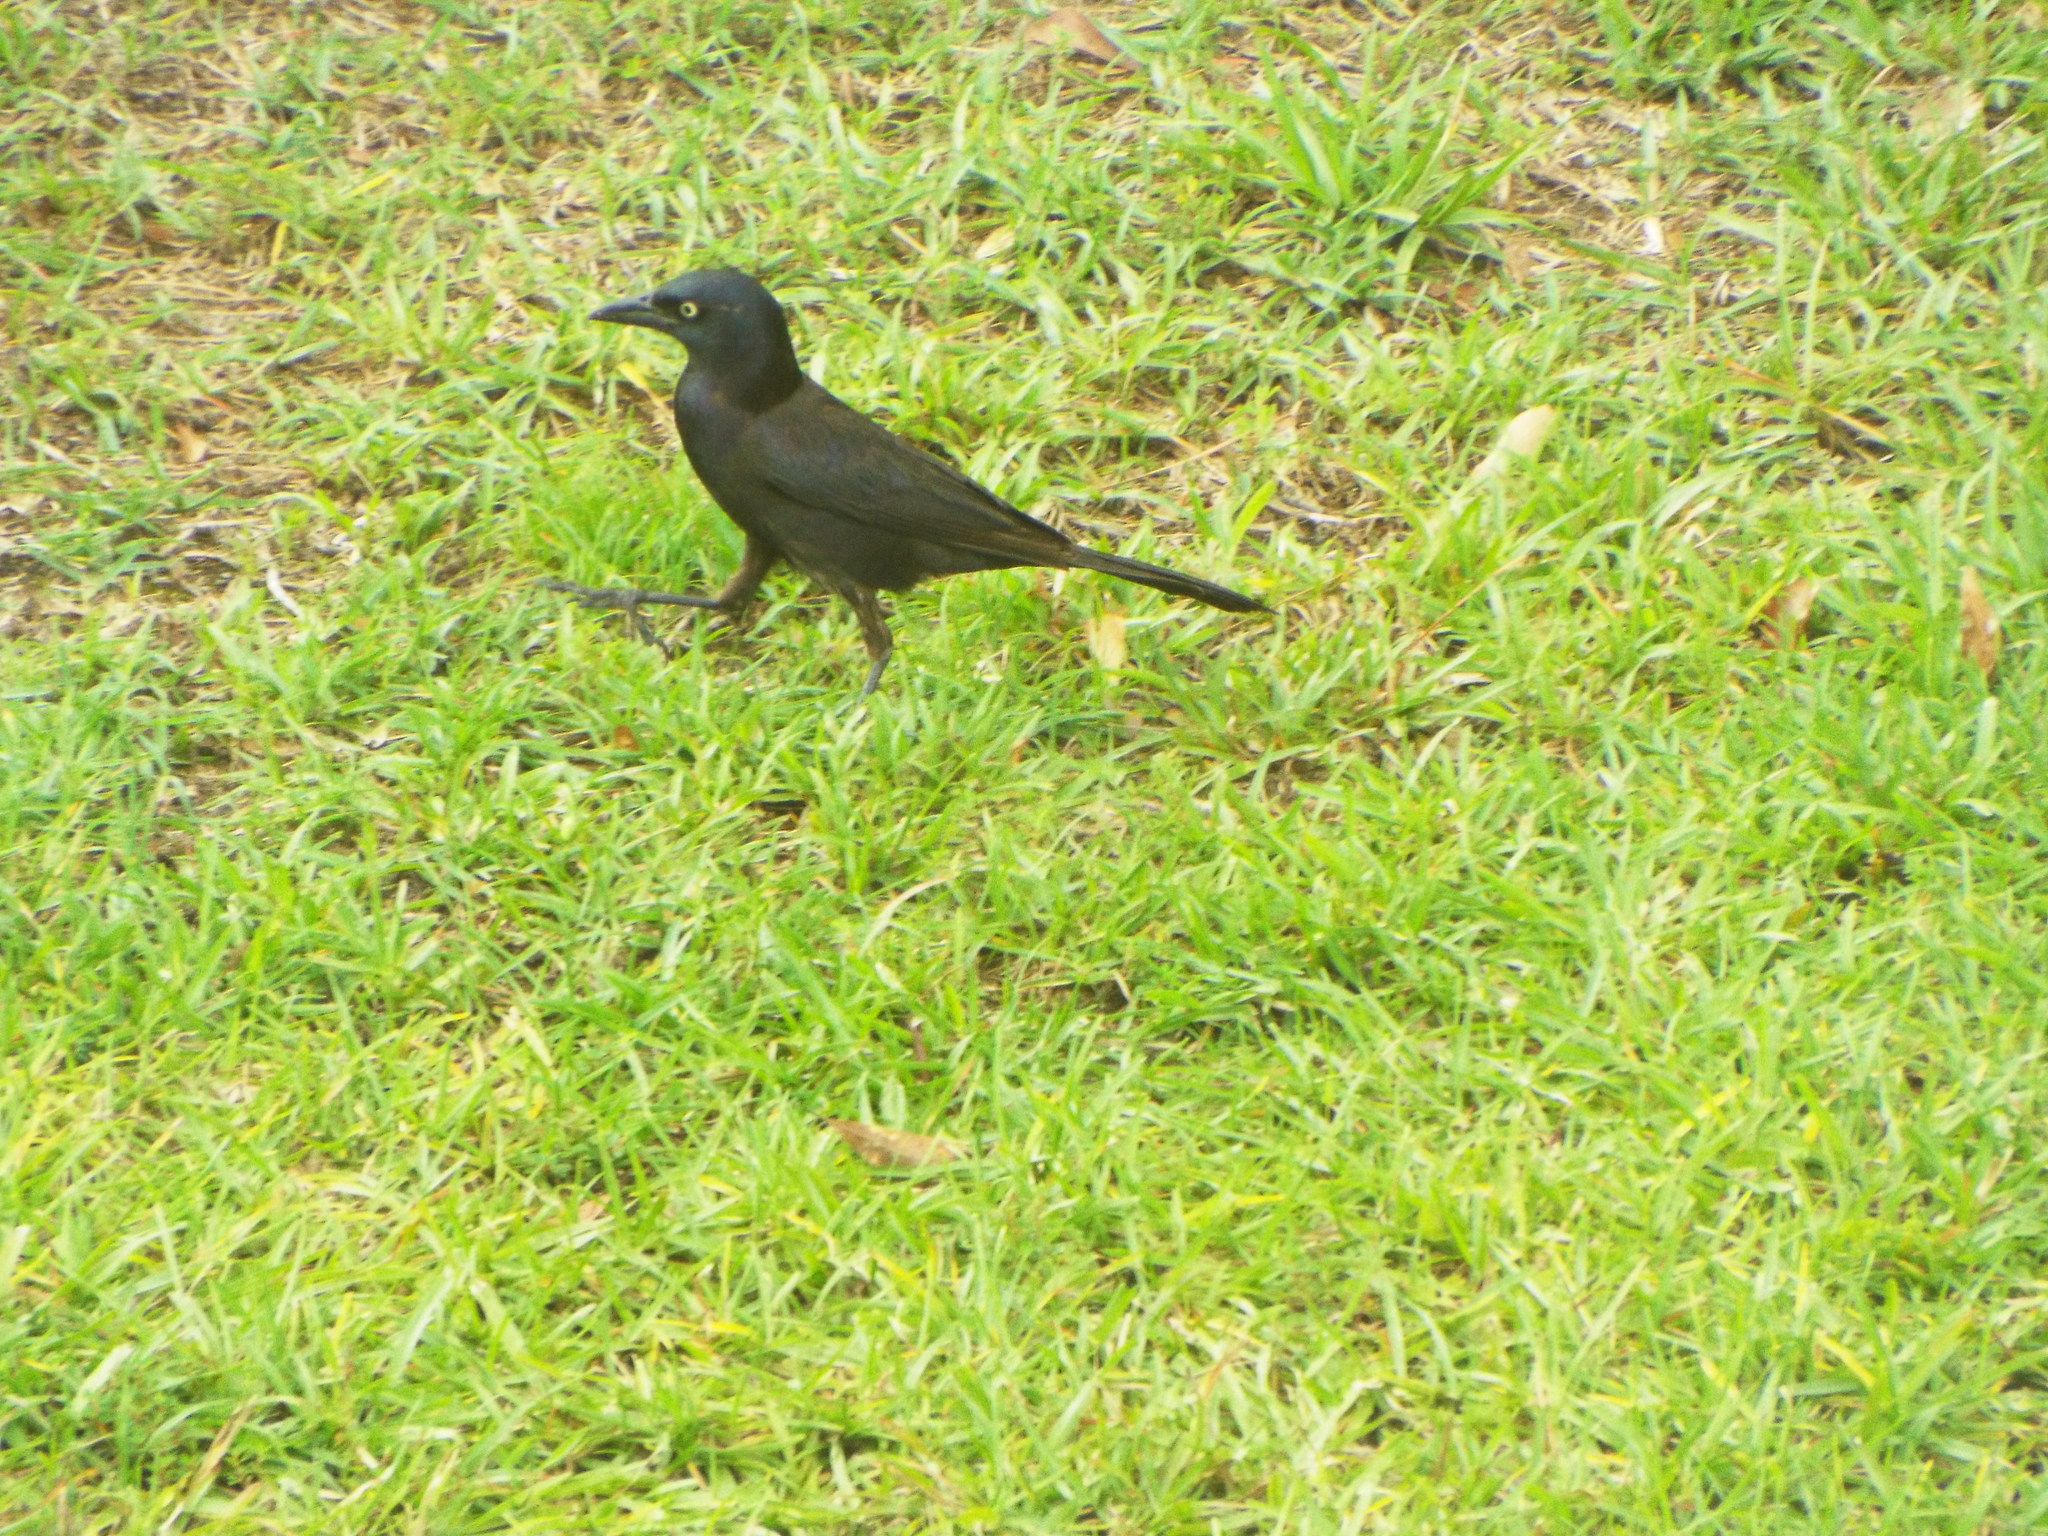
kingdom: Animalia
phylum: Chordata
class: Aves
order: Passeriformes
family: Icteridae
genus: Quiscalus
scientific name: Quiscalus quiscula
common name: Common grackle
